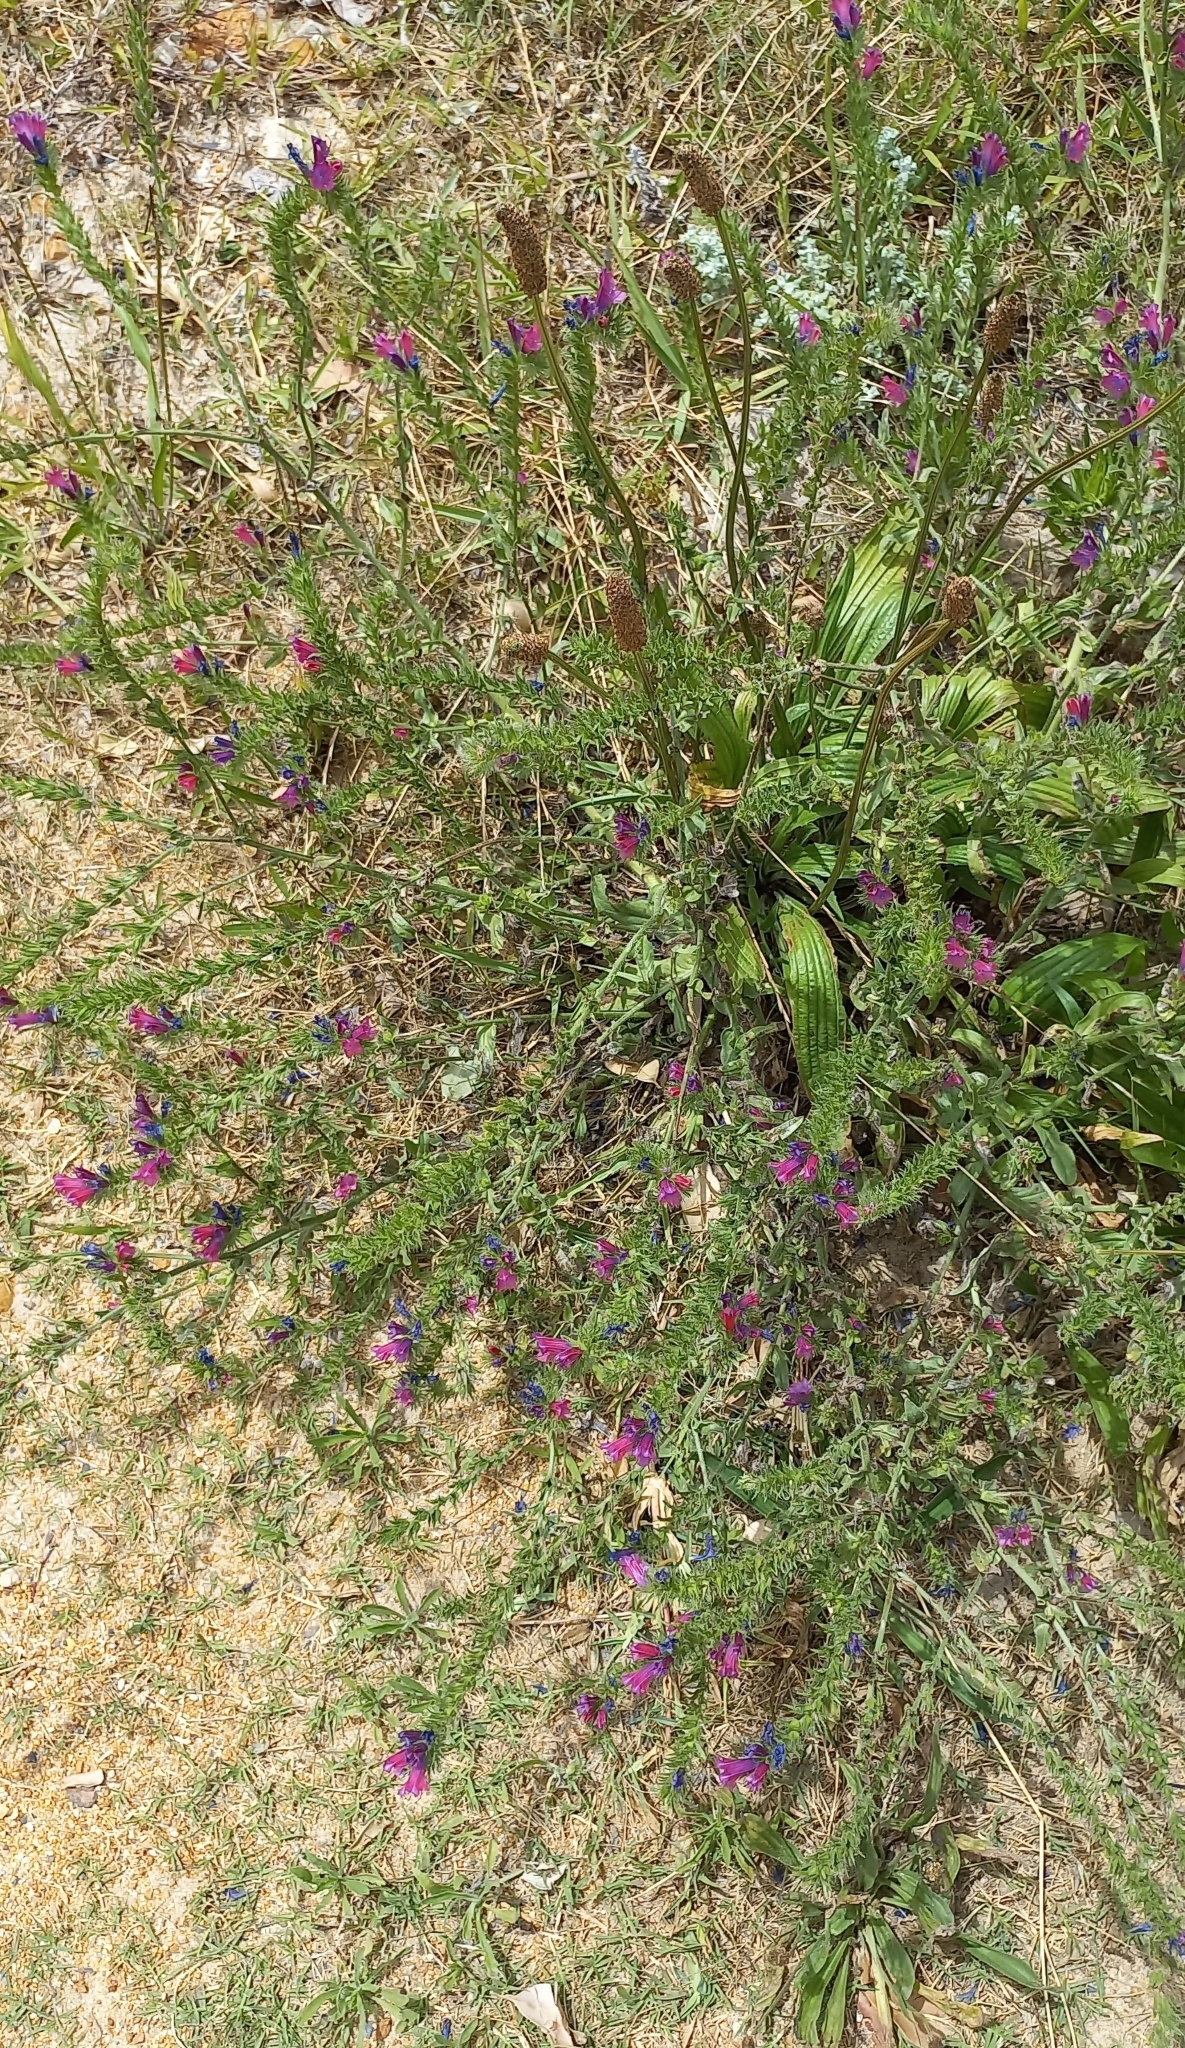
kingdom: Plantae
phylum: Tracheophyta
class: Magnoliopsida
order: Boraginales
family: Boraginaceae
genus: Echium
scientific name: Echium plantagineum
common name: Purple viper's-bugloss
